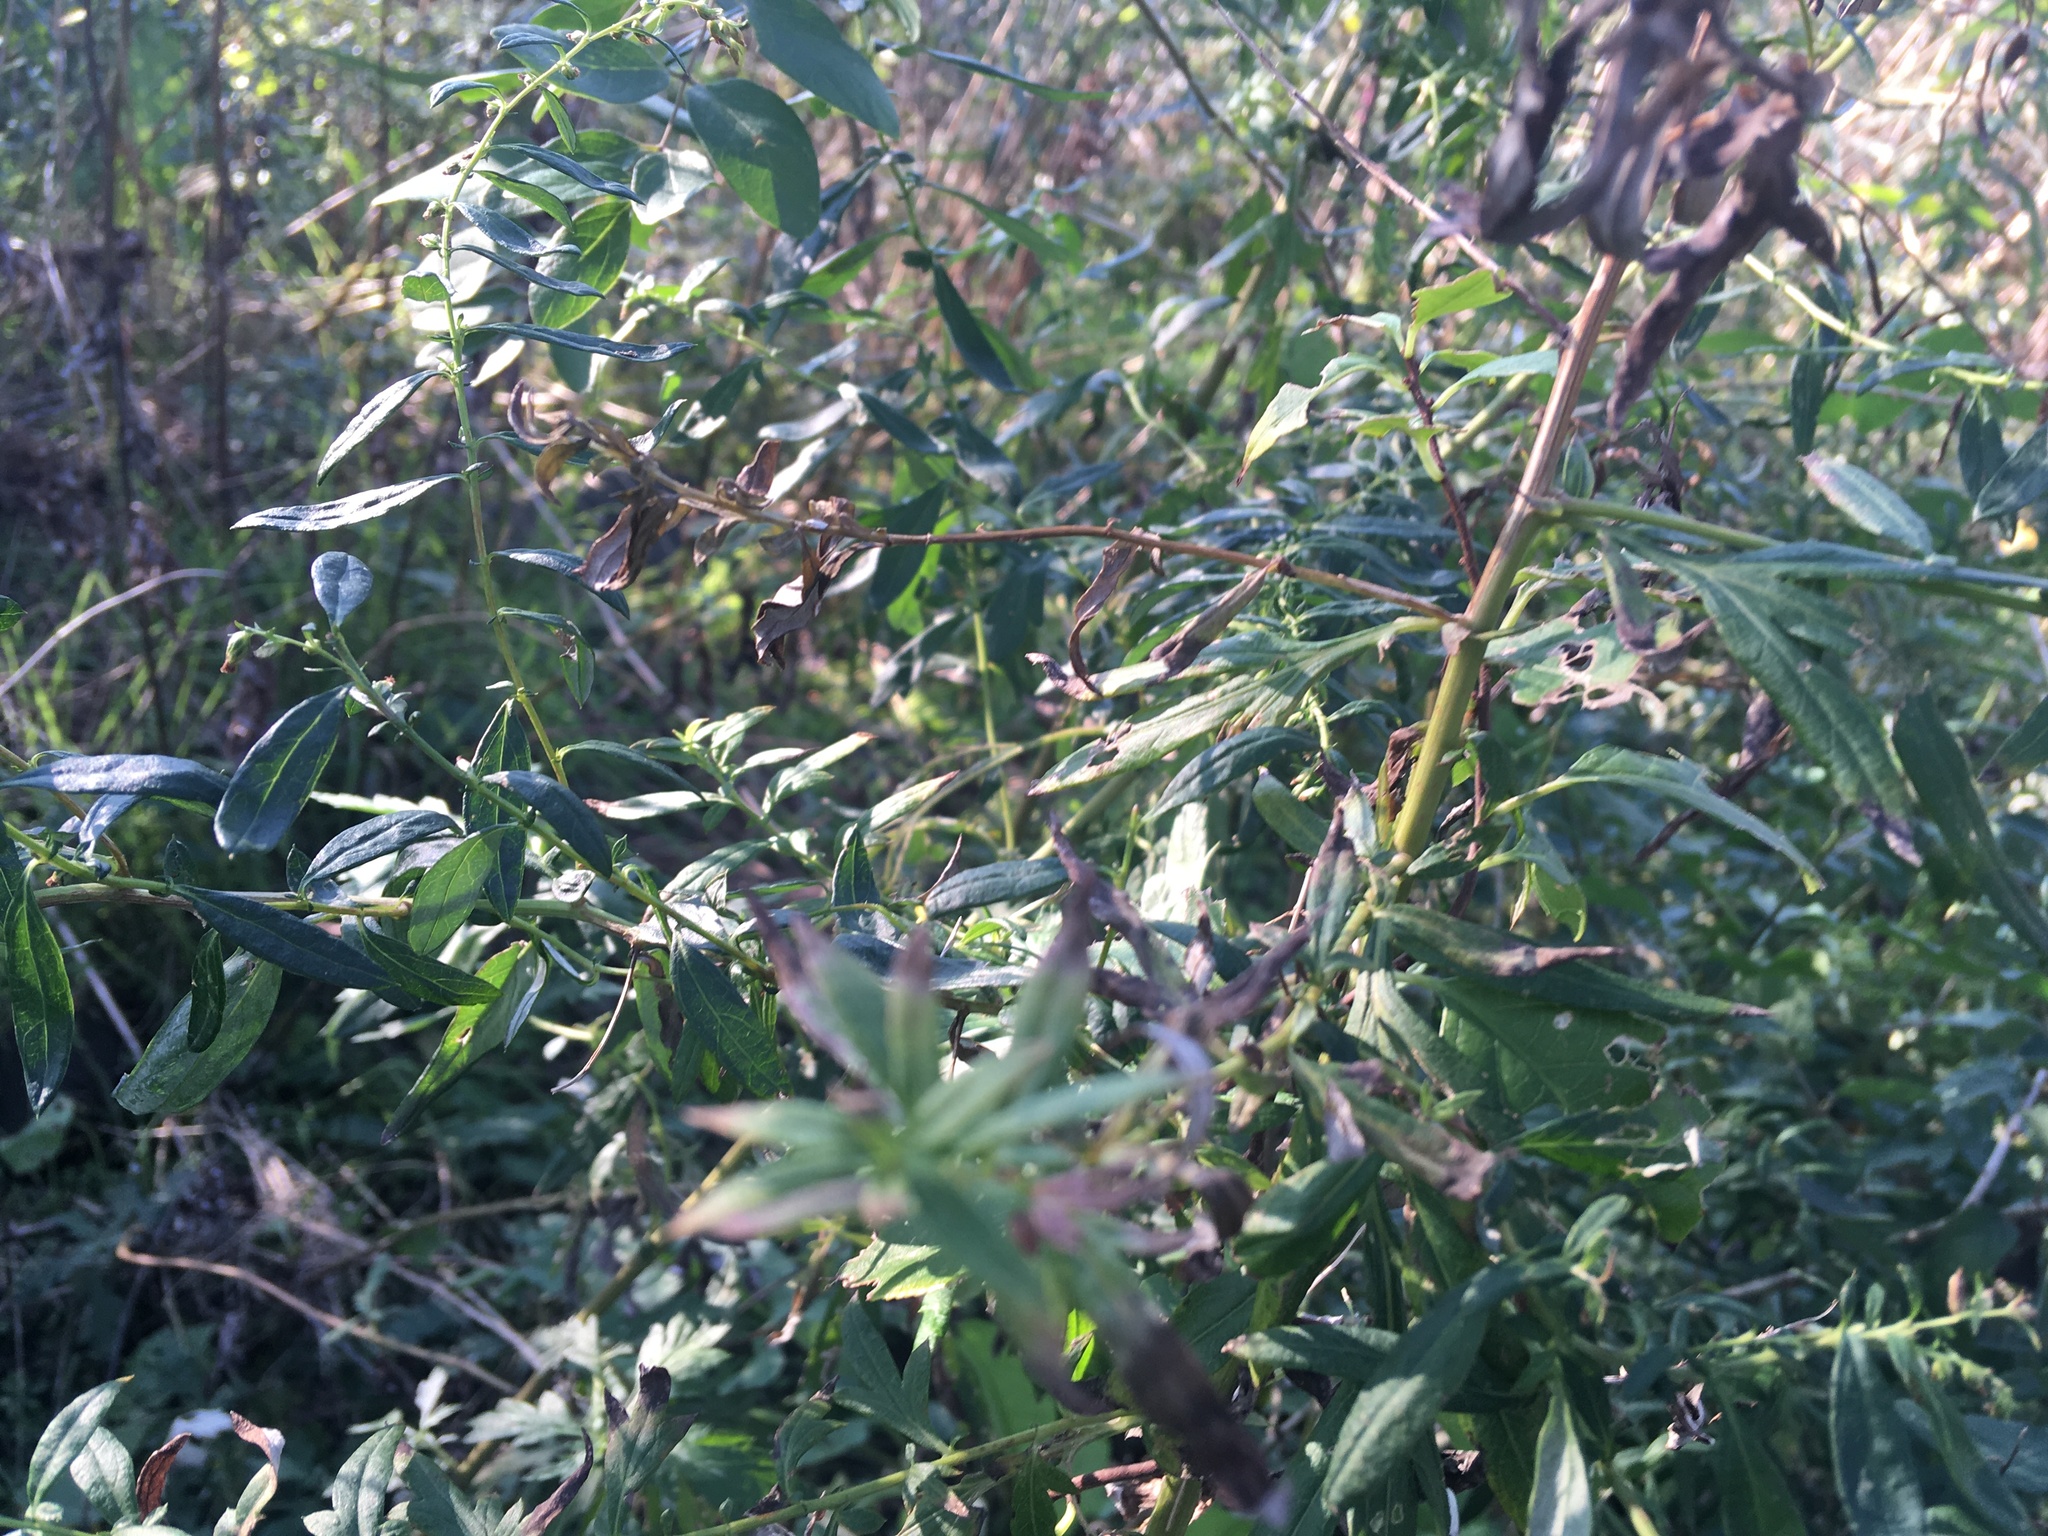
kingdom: Plantae
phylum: Tracheophyta
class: Magnoliopsida
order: Asterales
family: Asteraceae
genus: Artemisia
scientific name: Artemisia vulgaris
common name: Mugwort
